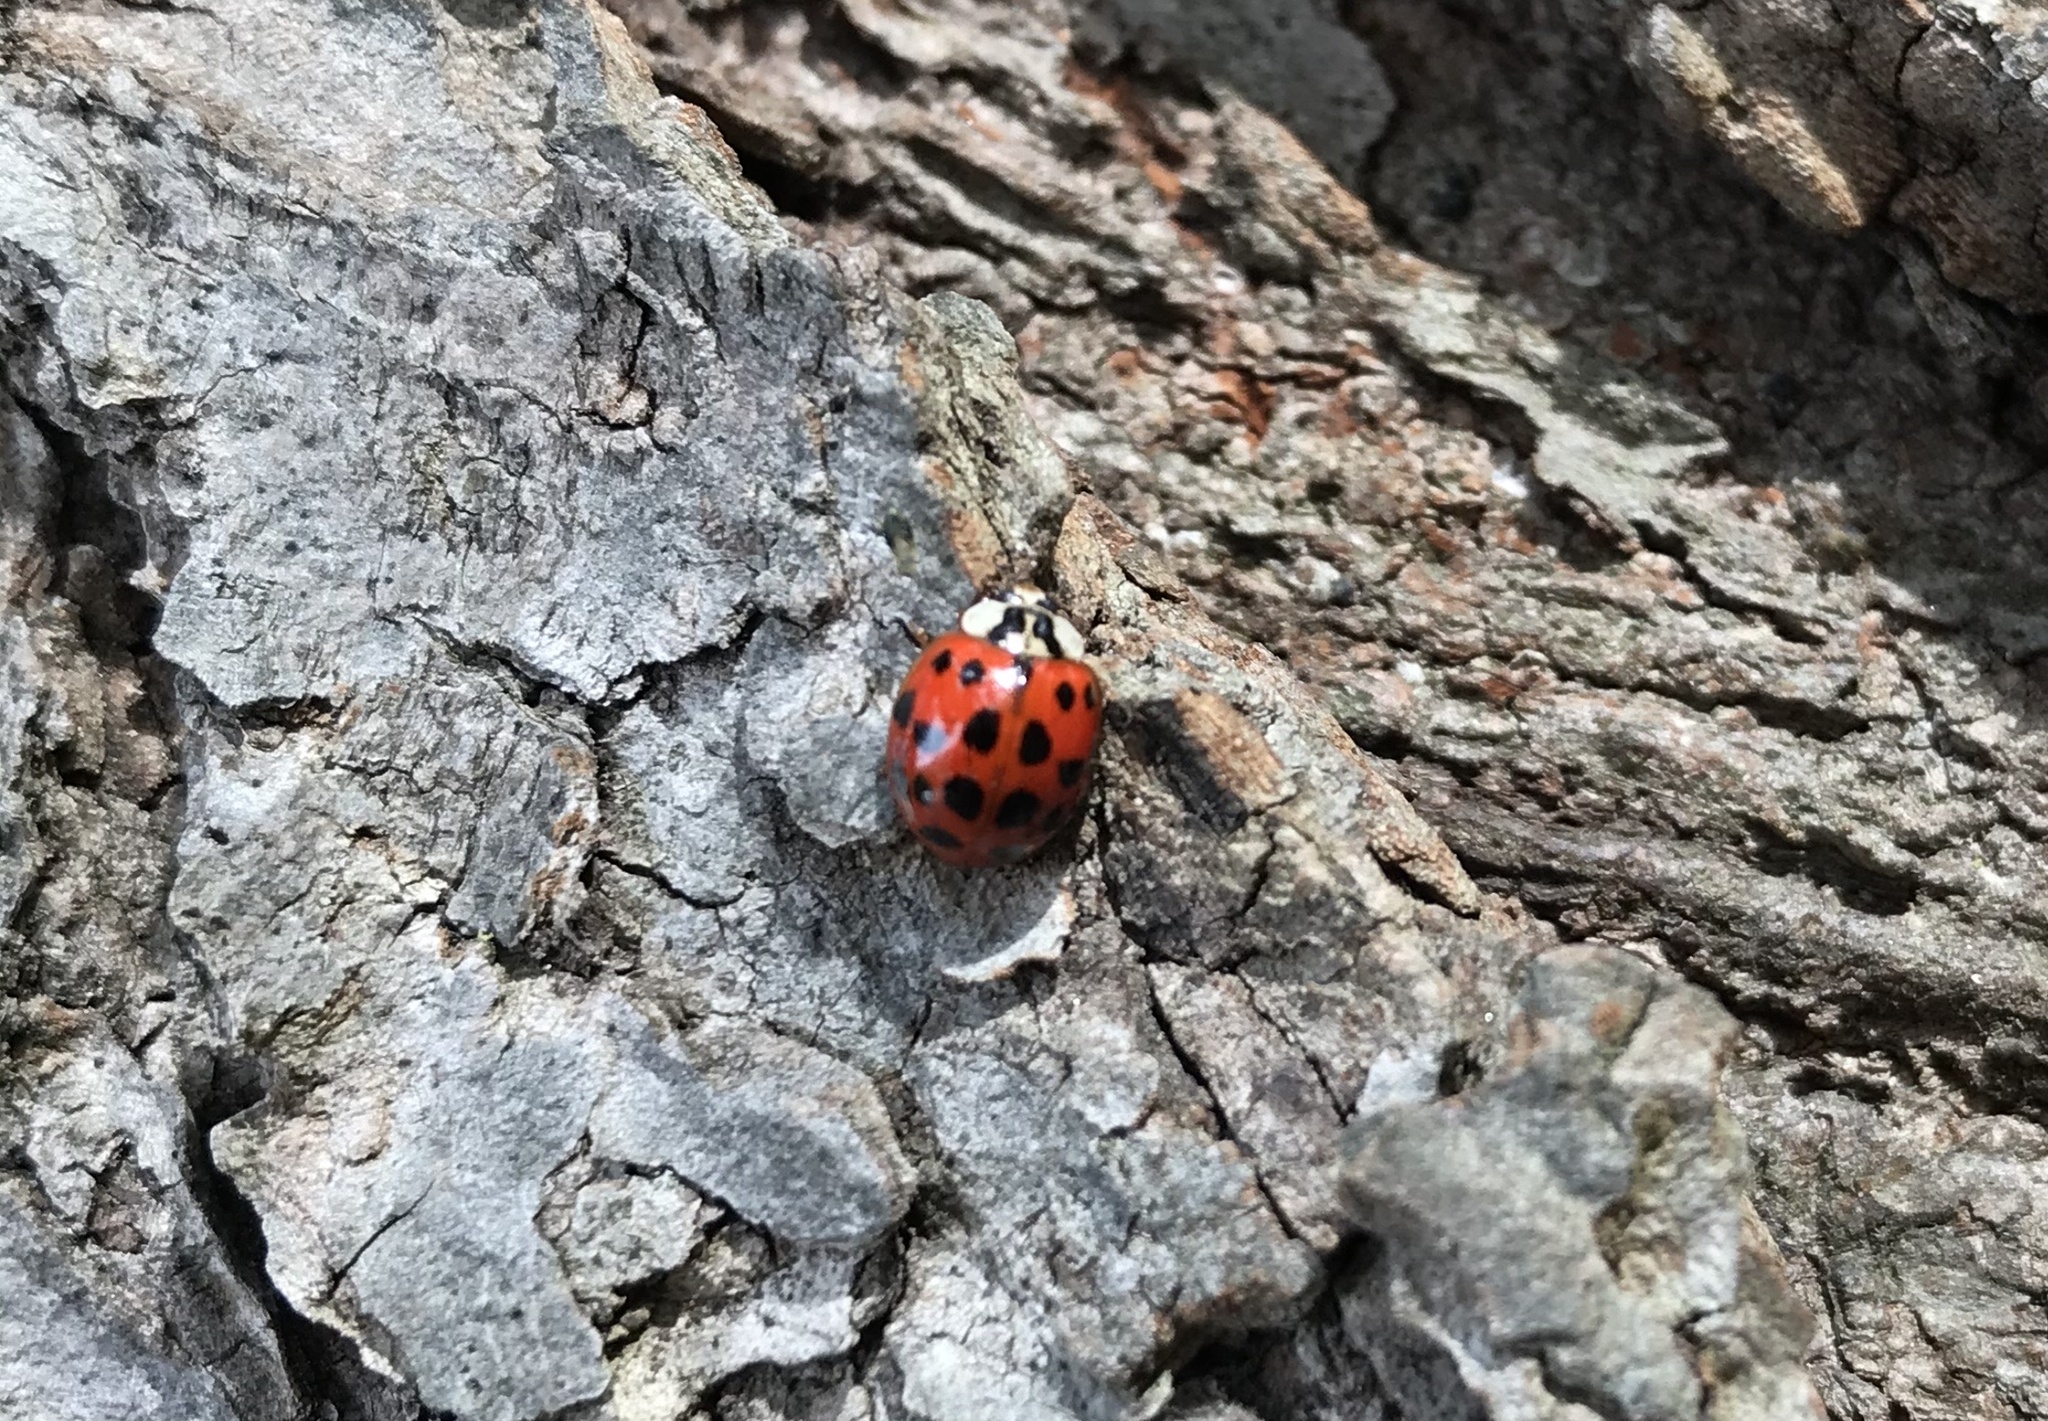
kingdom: Animalia
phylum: Arthropoda
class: Insecta
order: Coleoptera
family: Coccinellidae
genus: Harmonia
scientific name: Harmonia axyridis
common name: Harlequin ladybird
